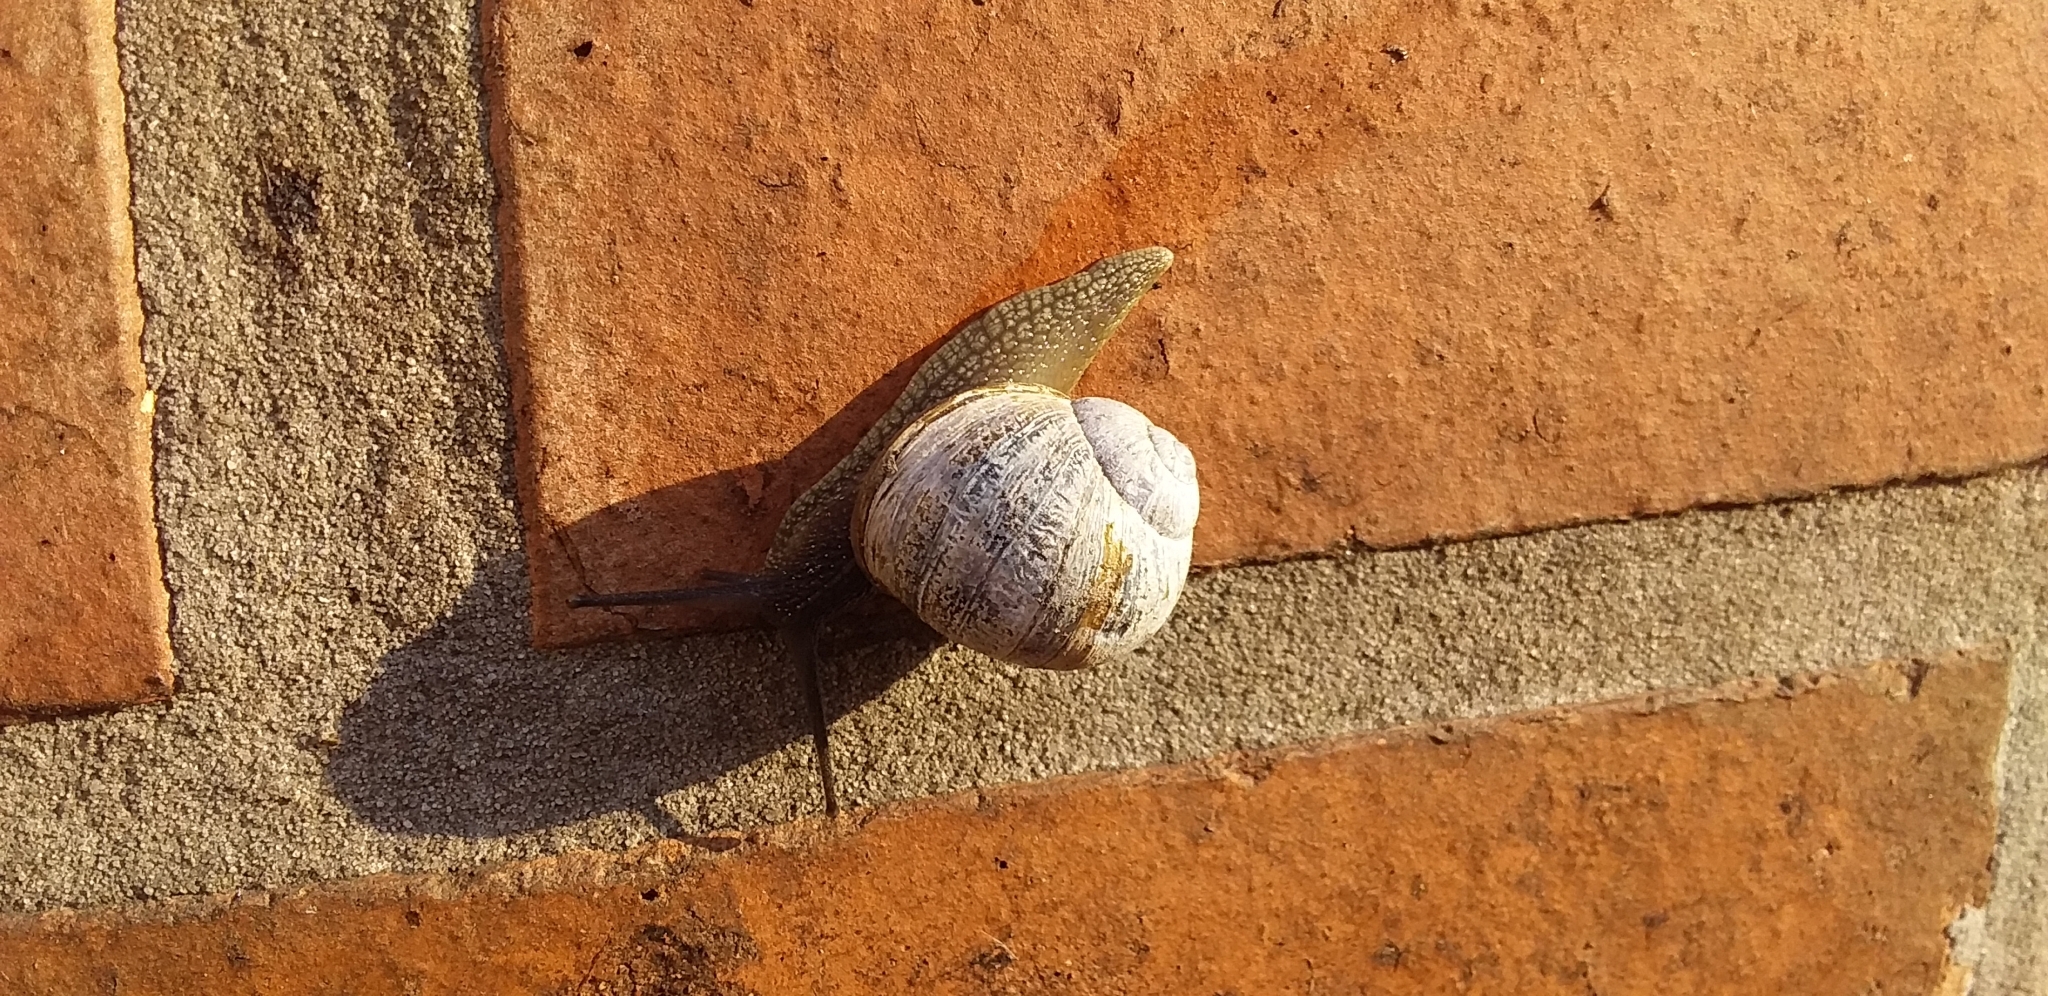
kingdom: Animalia
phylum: Mollusca
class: Gastropoda
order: Stylommatophora
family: Helicidae
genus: Cornu
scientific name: Cornu aspersum
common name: Brown garden snail
